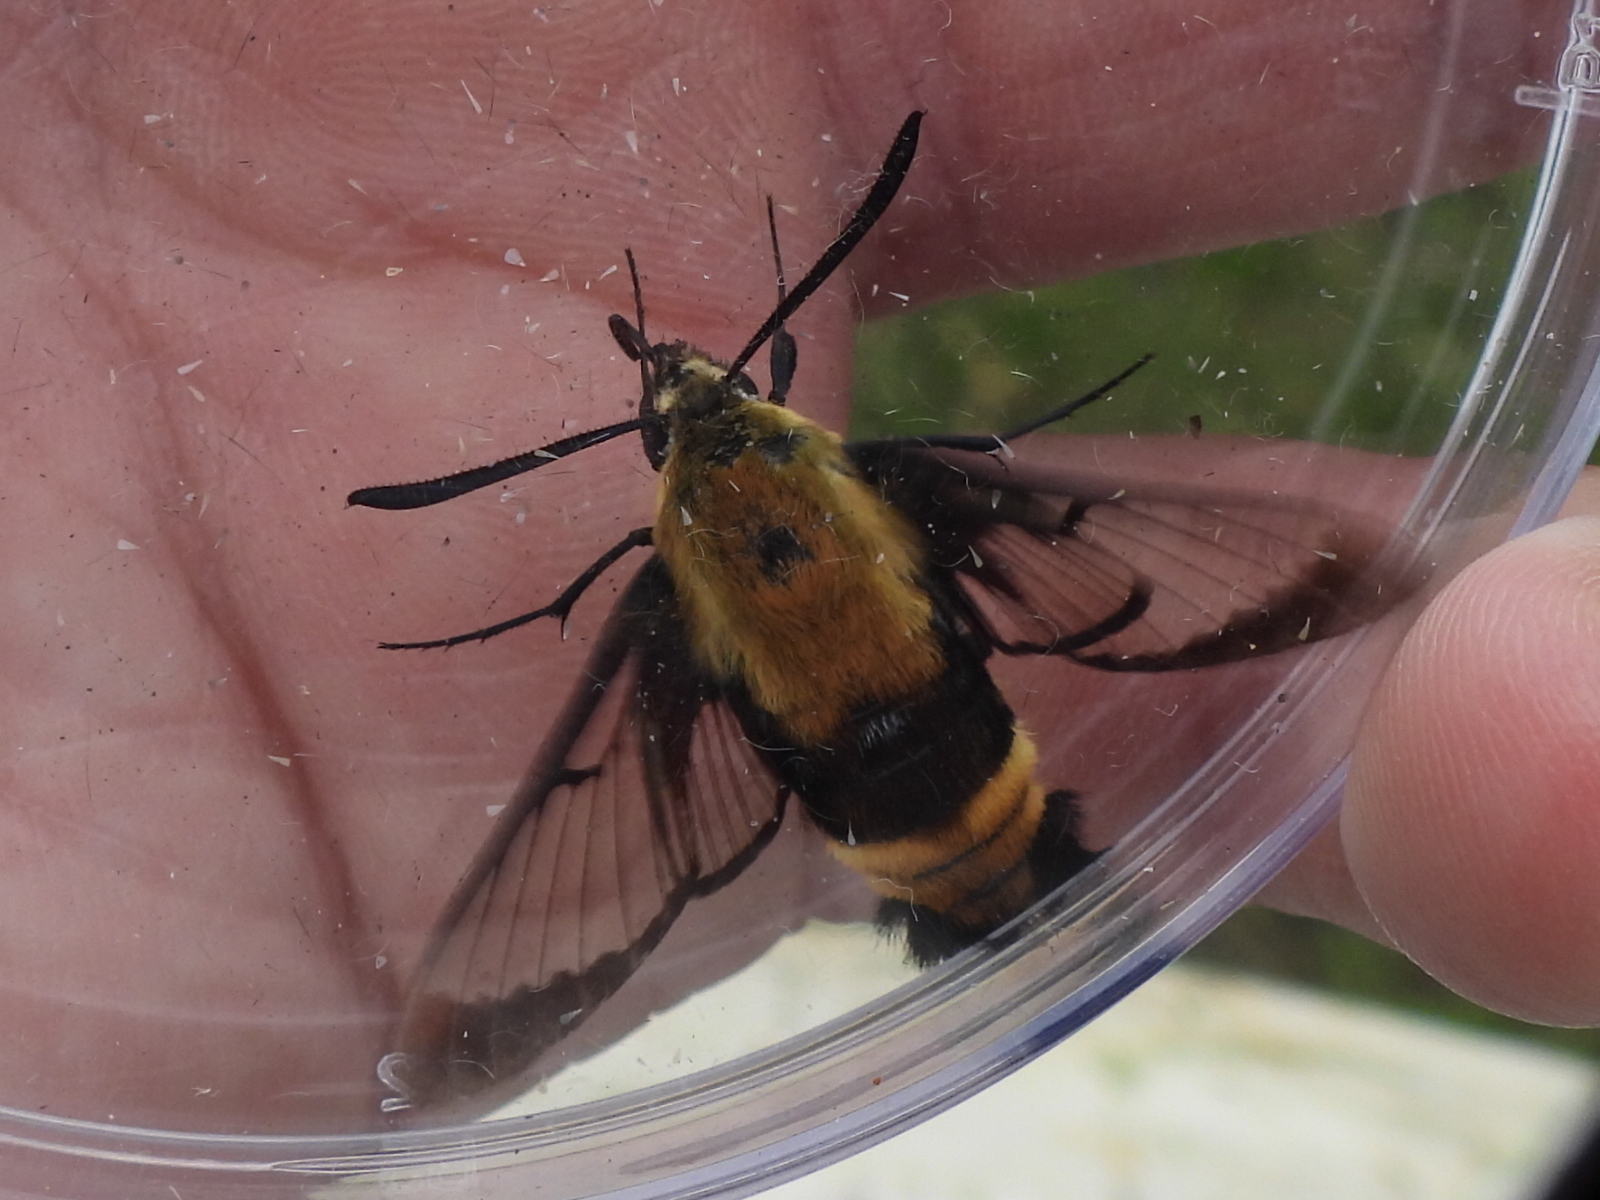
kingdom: Animalia
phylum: Arthropoda
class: Insecta
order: Lepidoptera
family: Sphingidae
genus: Hemaris
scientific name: Hemaris diffinis
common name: Bumblebee moth
